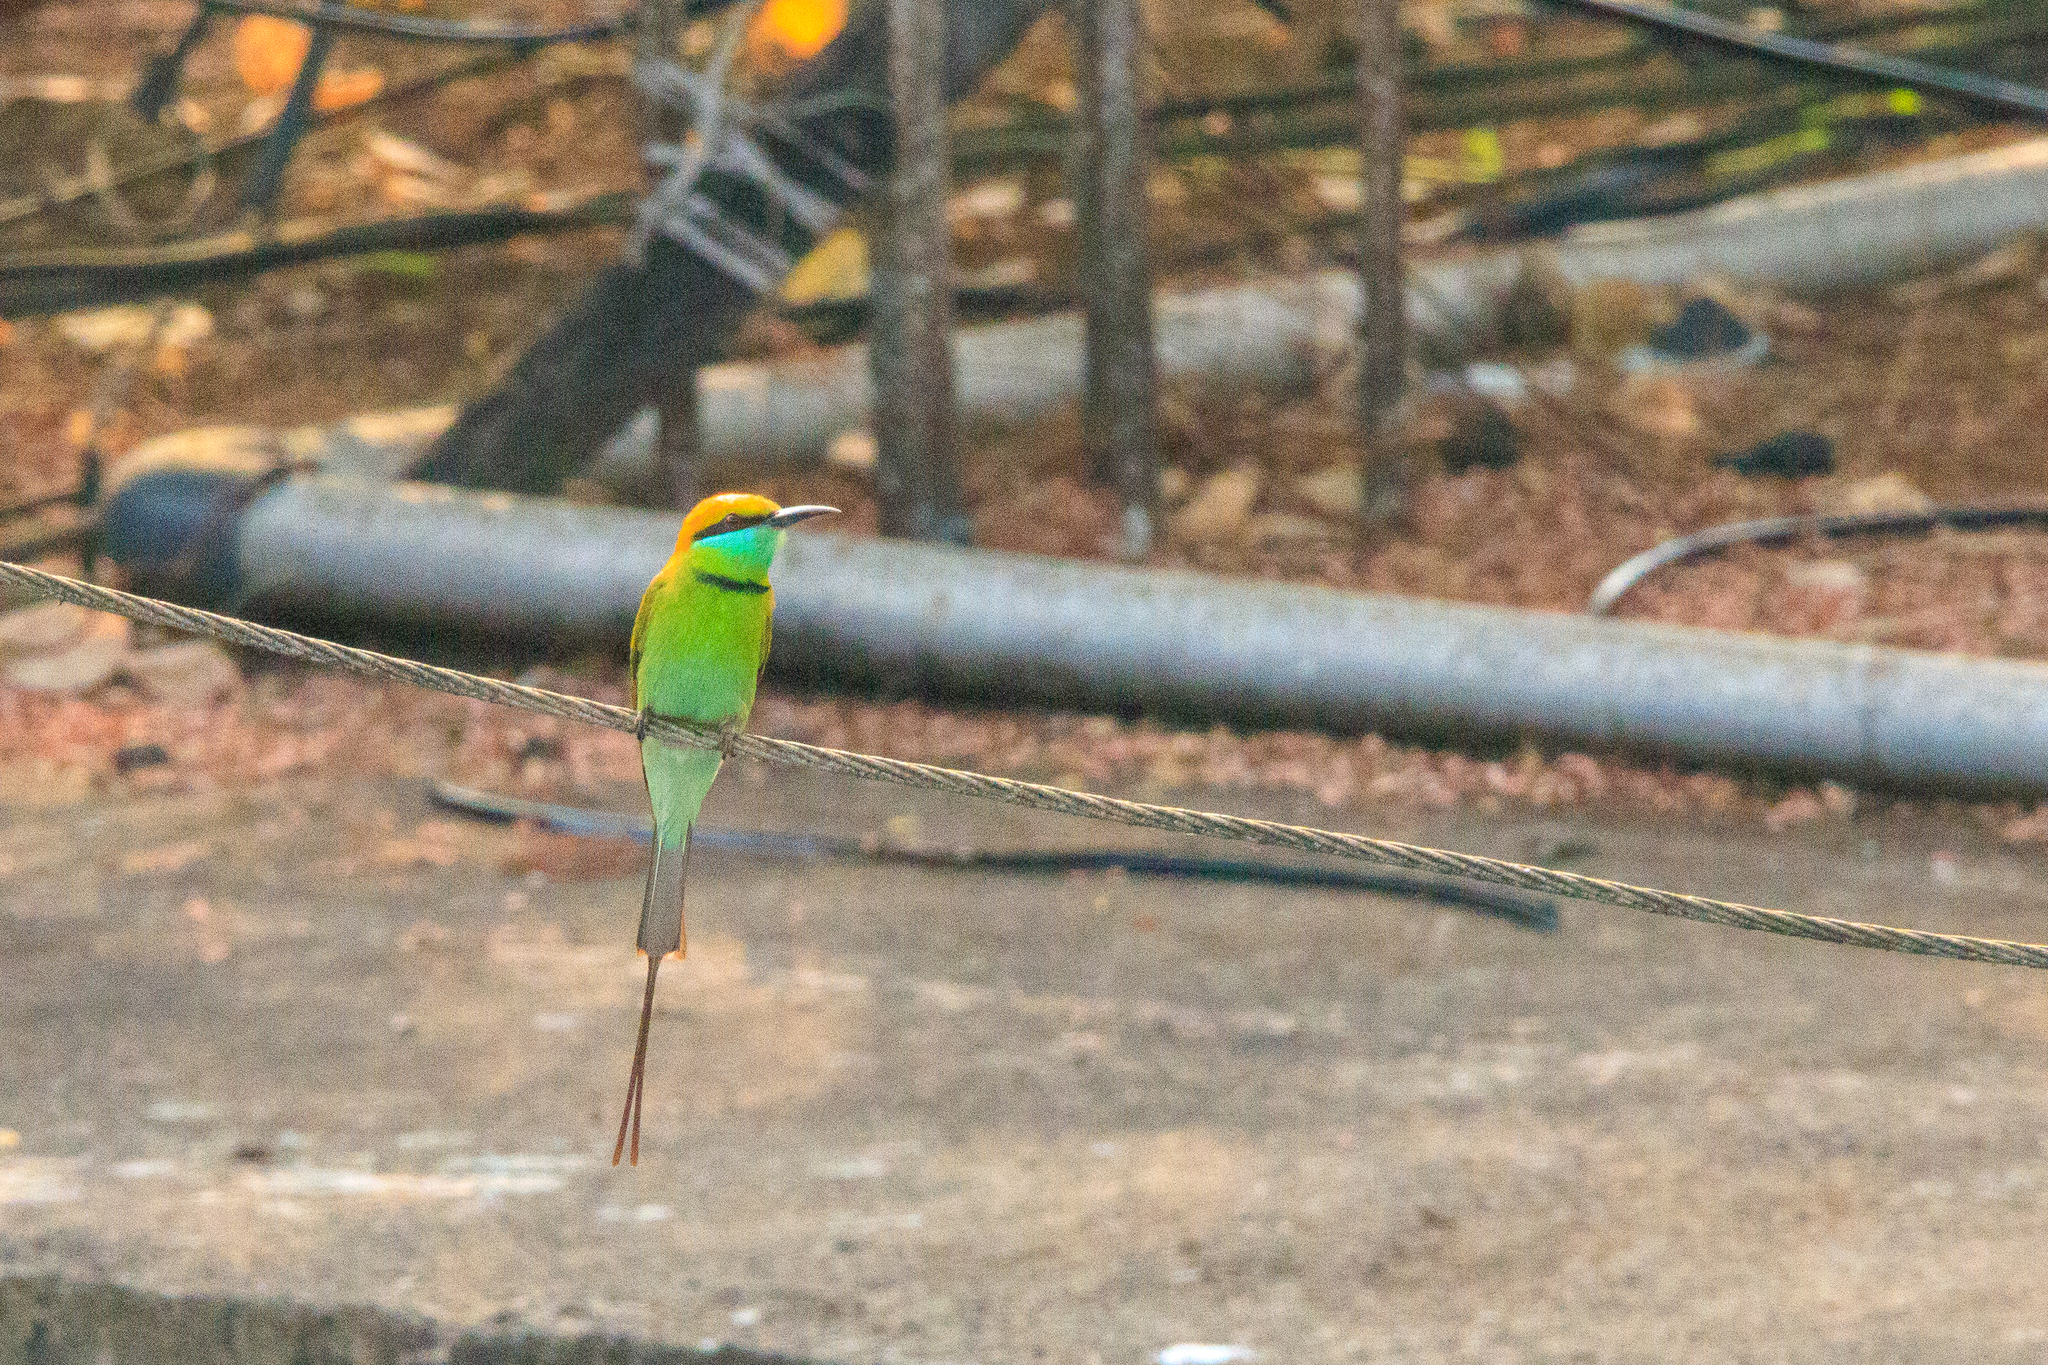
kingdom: Animalia
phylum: Chordata
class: Aves
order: Coraciiformes
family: Meropidae
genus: Merops
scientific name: Merops orientalis
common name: Green bee-eater
